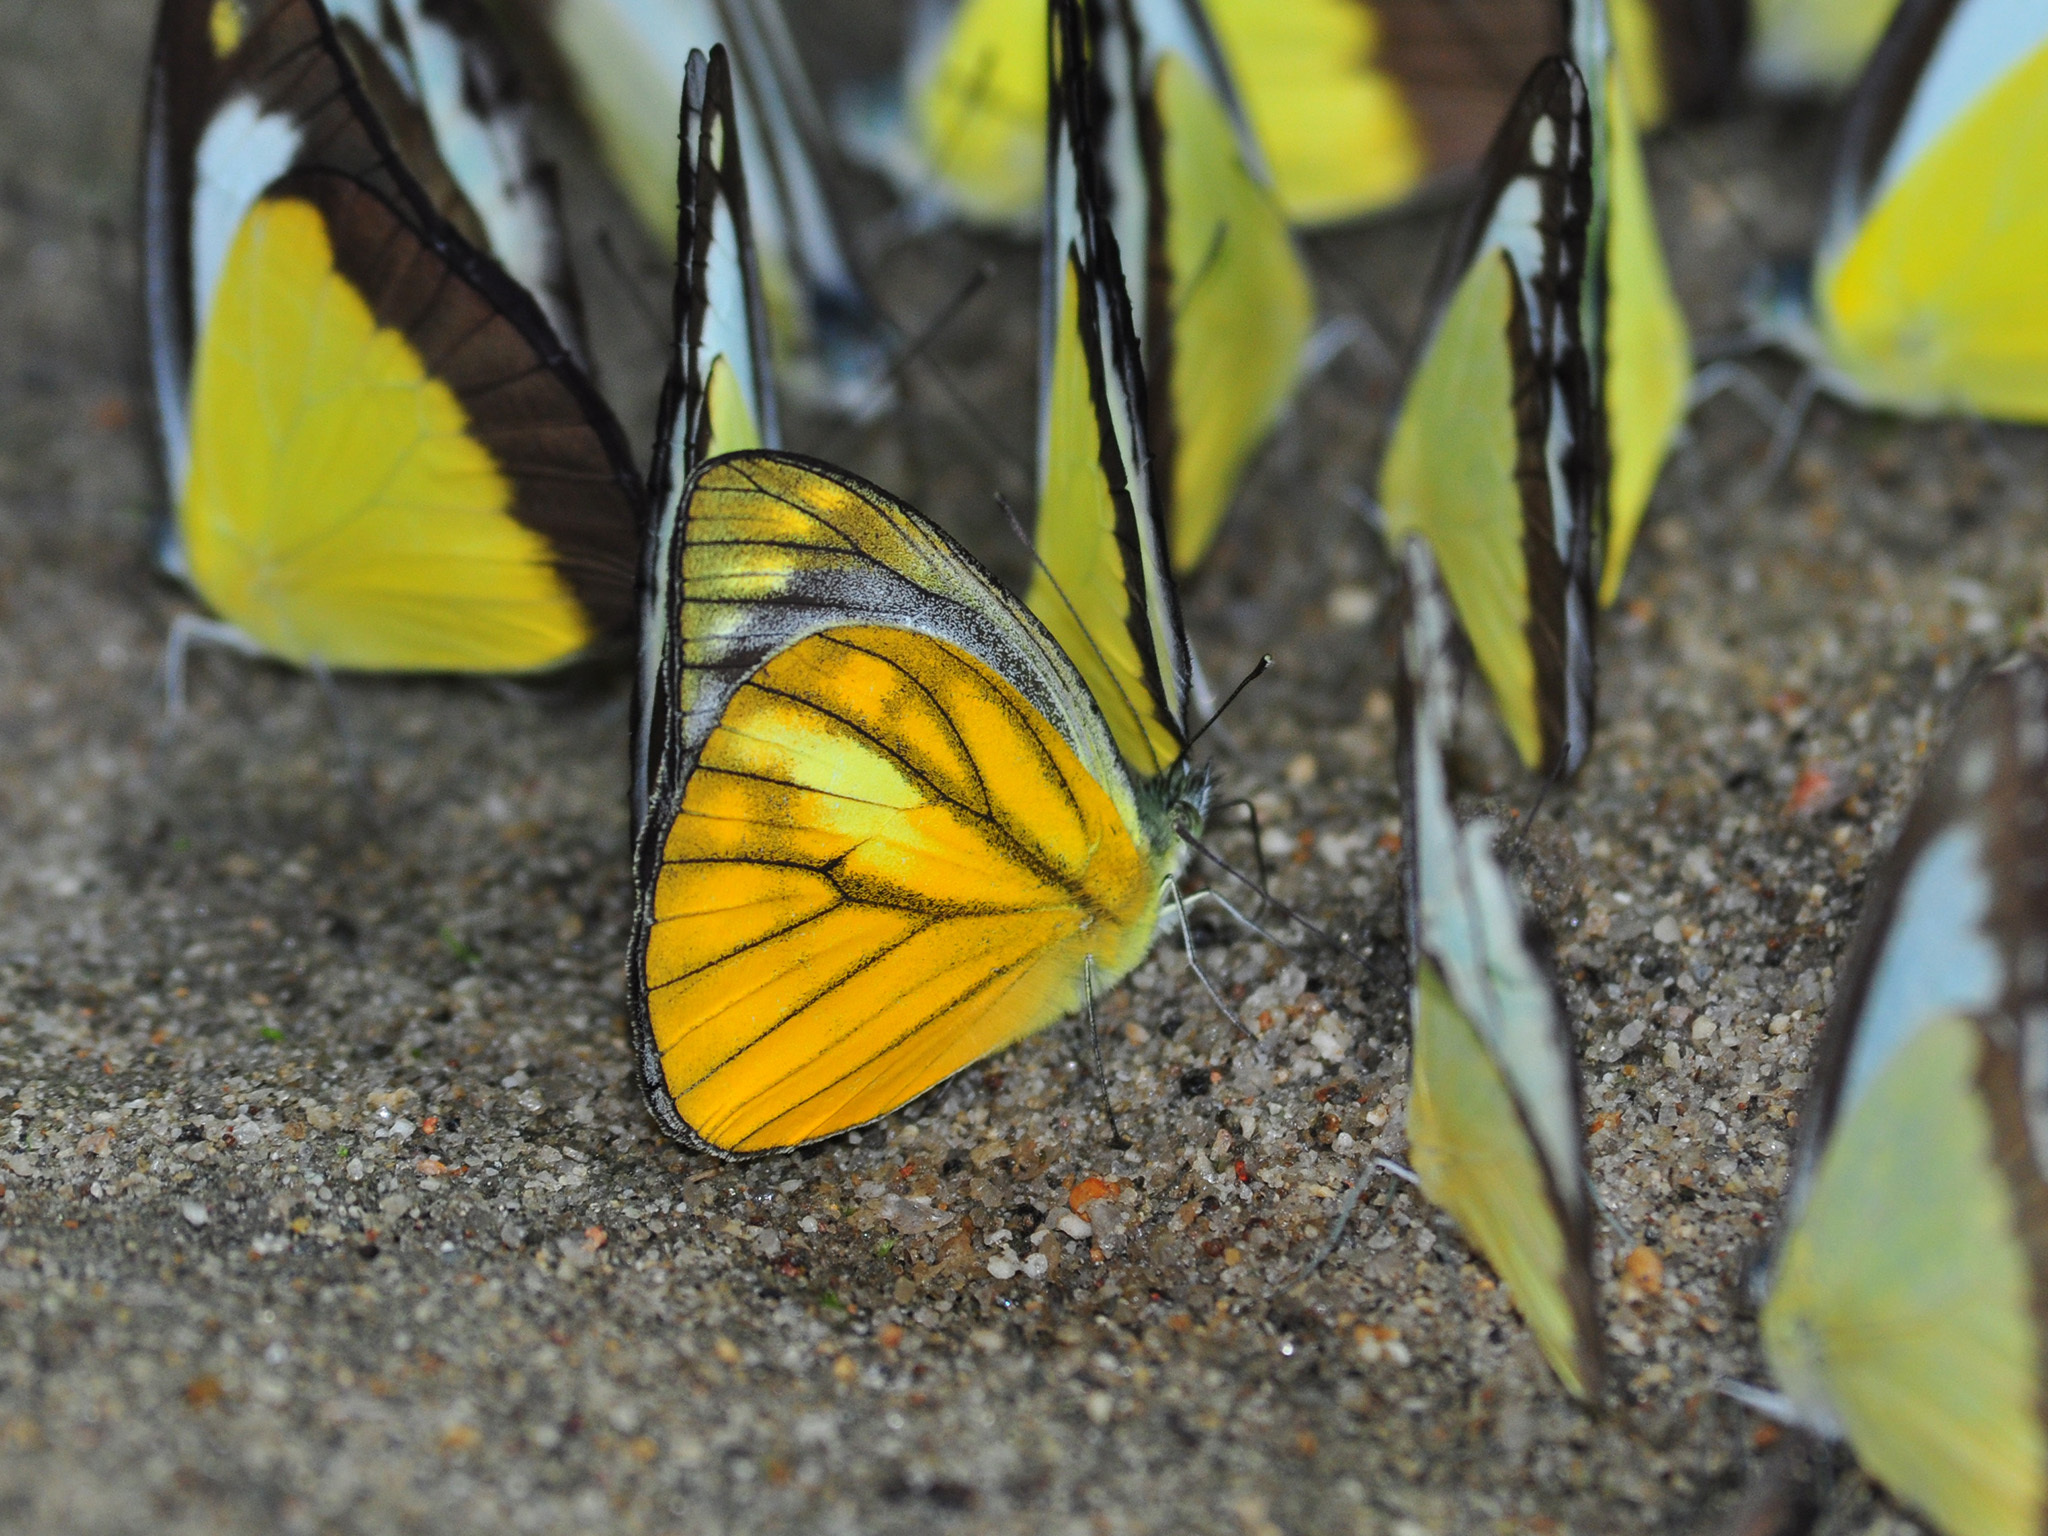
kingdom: Animalia
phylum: Arthropoda
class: Insecta
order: Lepidoptera
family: Pieridae
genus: Cepora
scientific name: Cepora nadina
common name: Lesser gull
